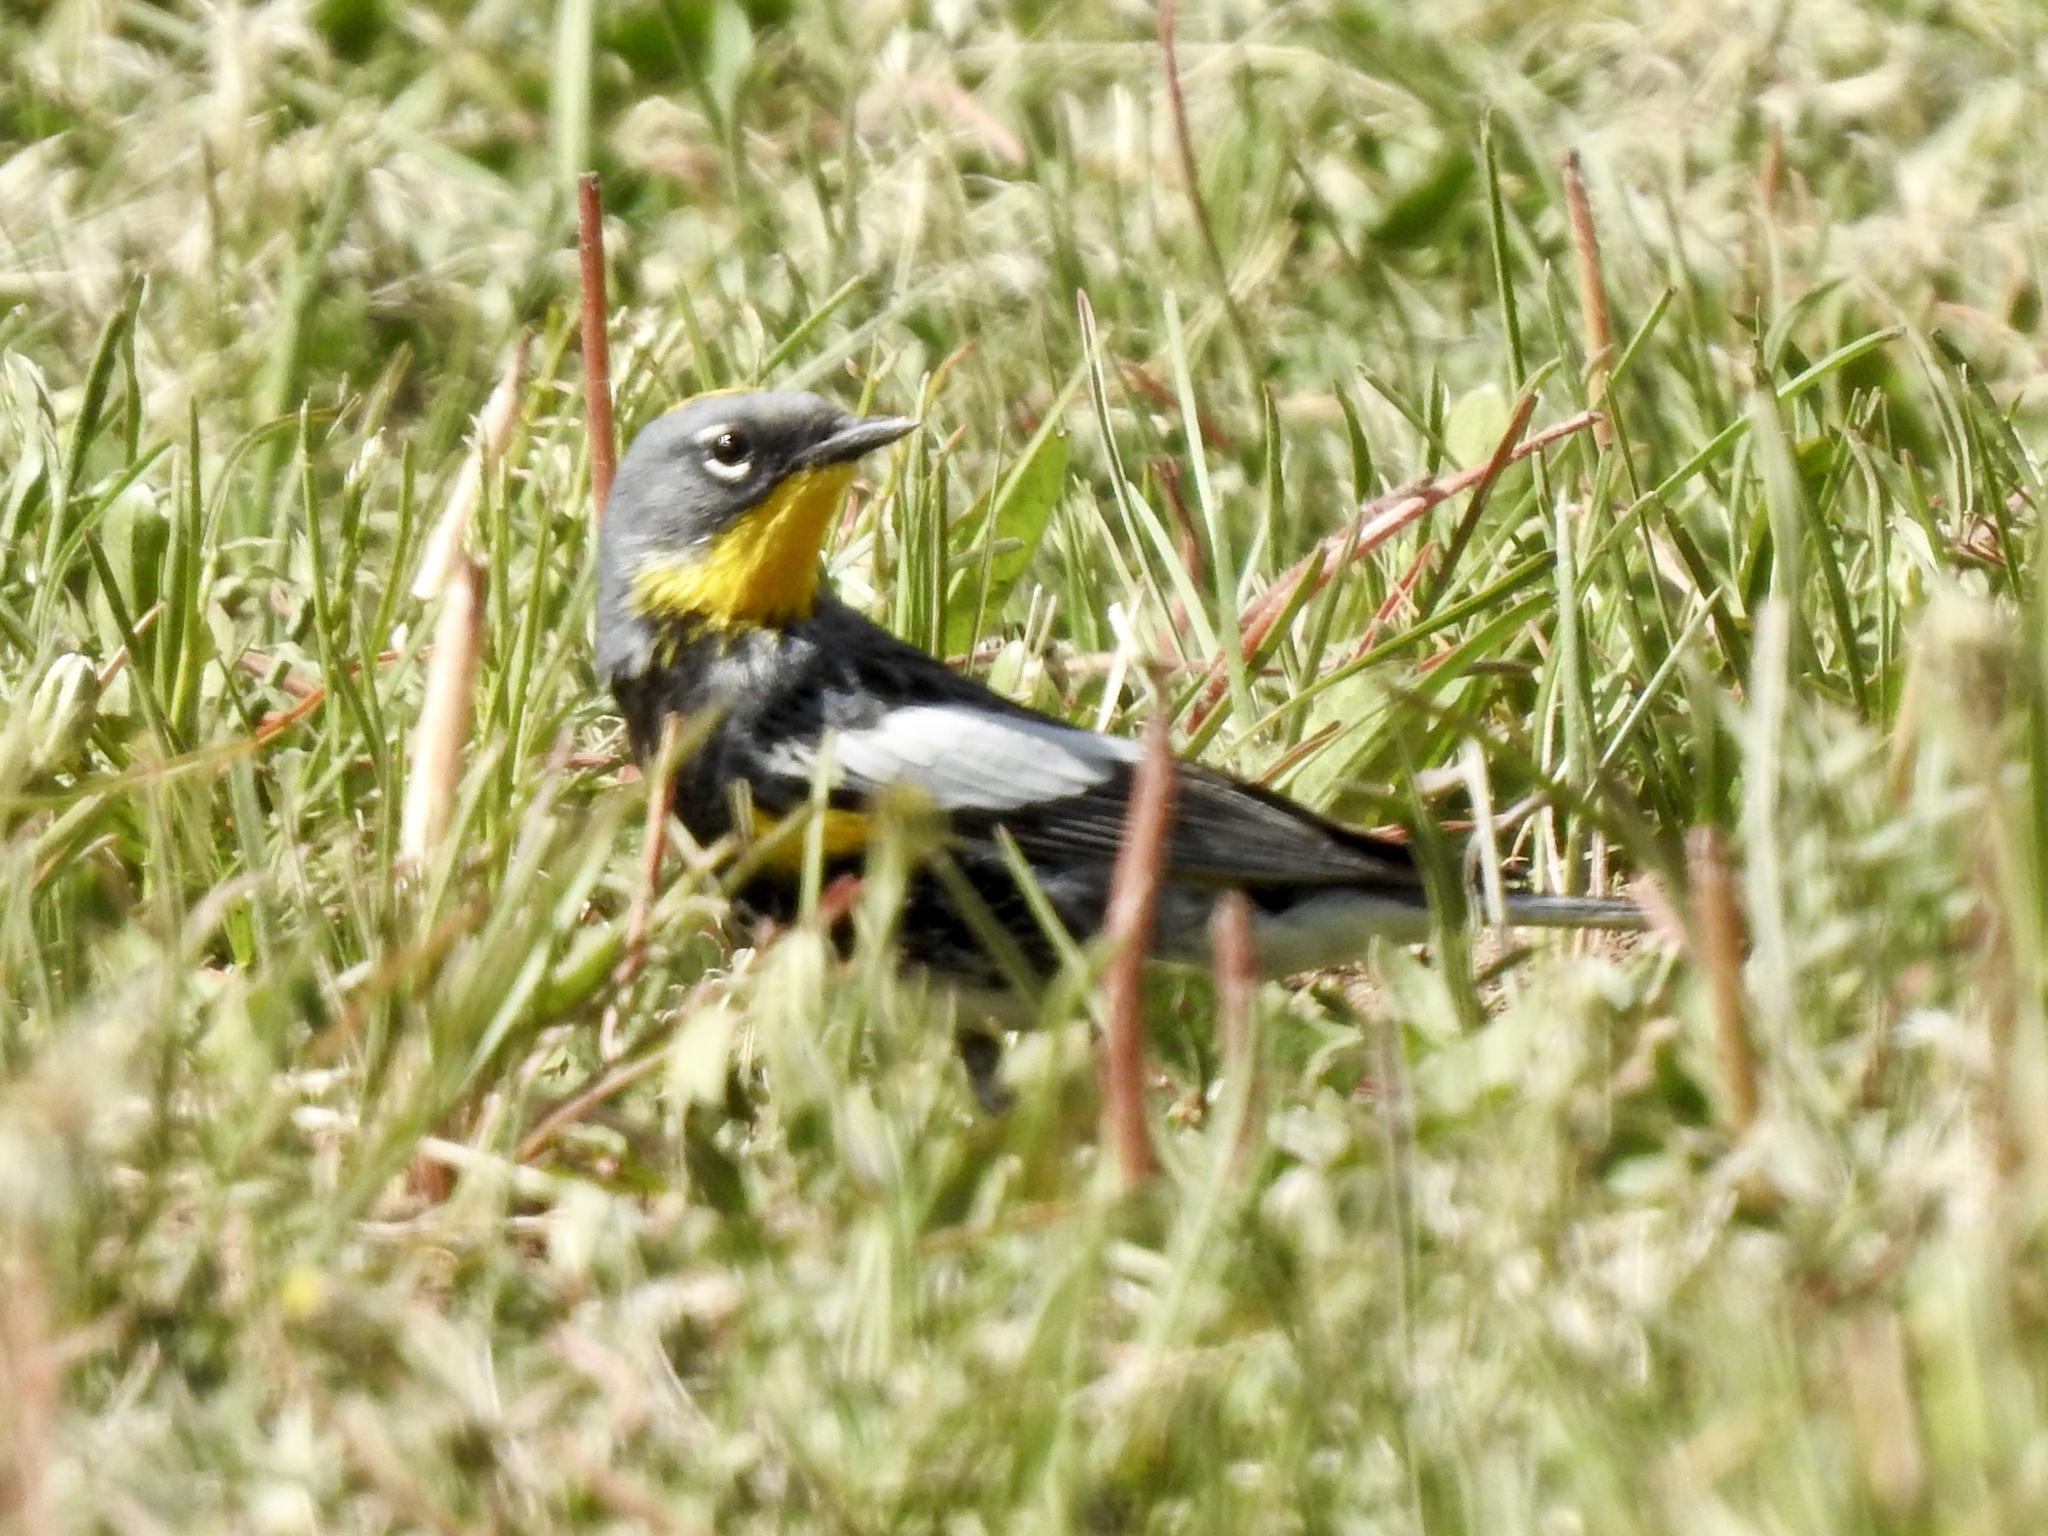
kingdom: Animalia
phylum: Chordata
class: Aves
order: Passeriformes
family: Parulidae
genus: Setophaga
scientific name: Setophaga coronata
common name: Myrtle warbler
